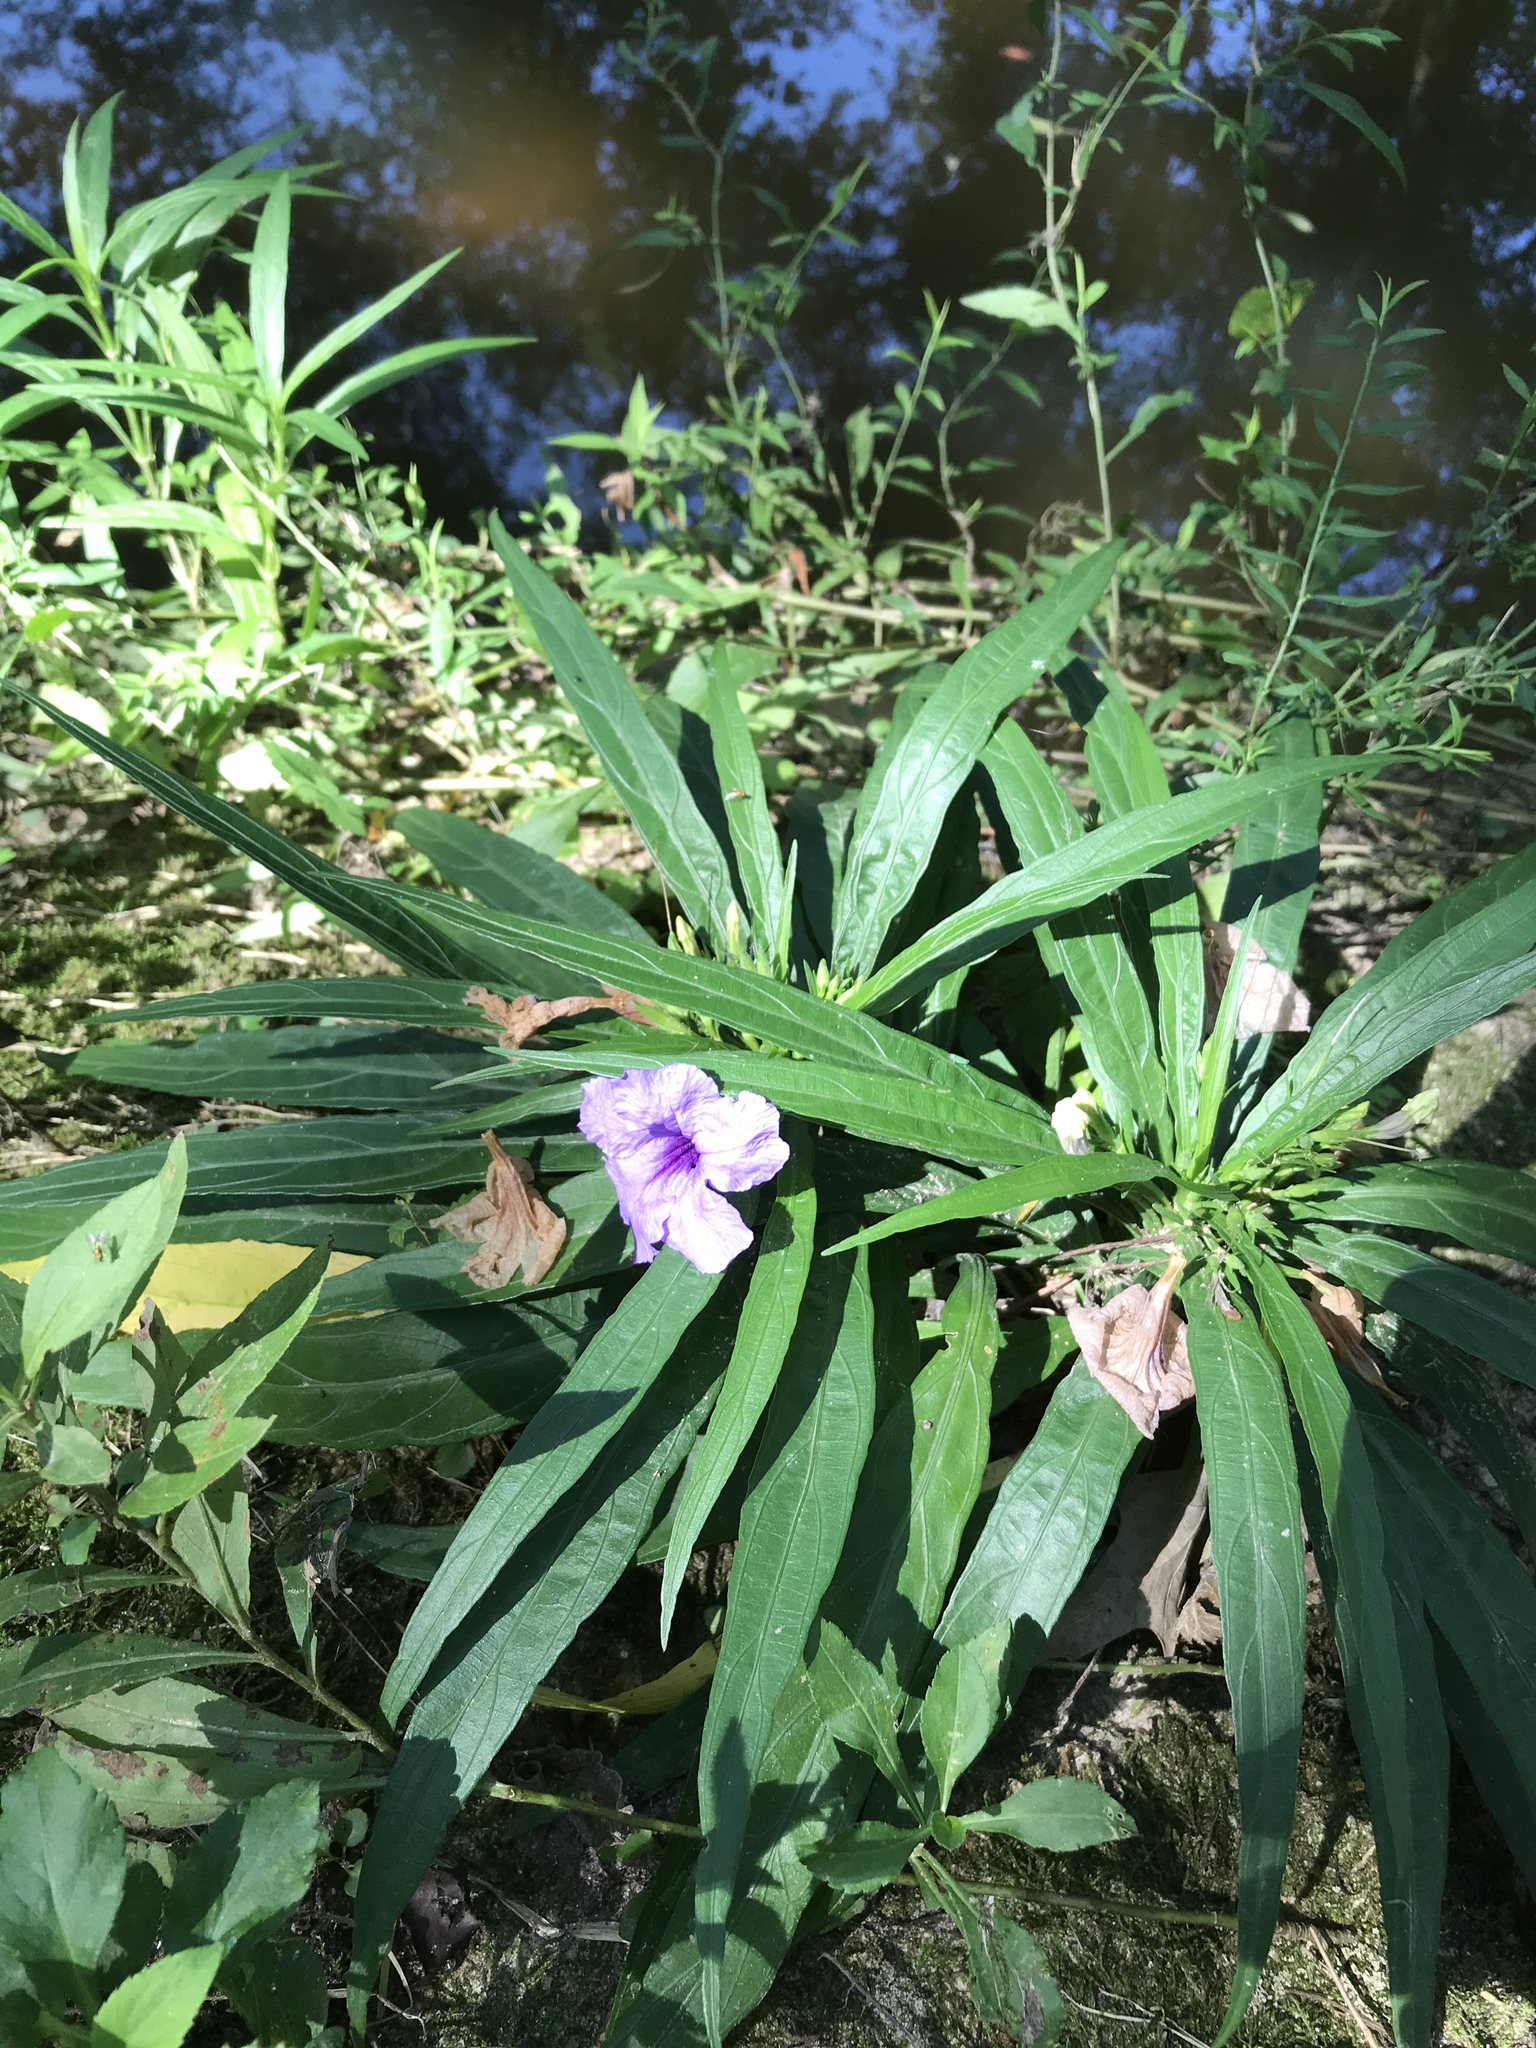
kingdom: Plantae
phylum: Tracheophyta
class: Magnoliopsida
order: Lamiales
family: Acanthaceae
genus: Ruellia
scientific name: Ruellia simplex
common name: Softseed wild petunia
